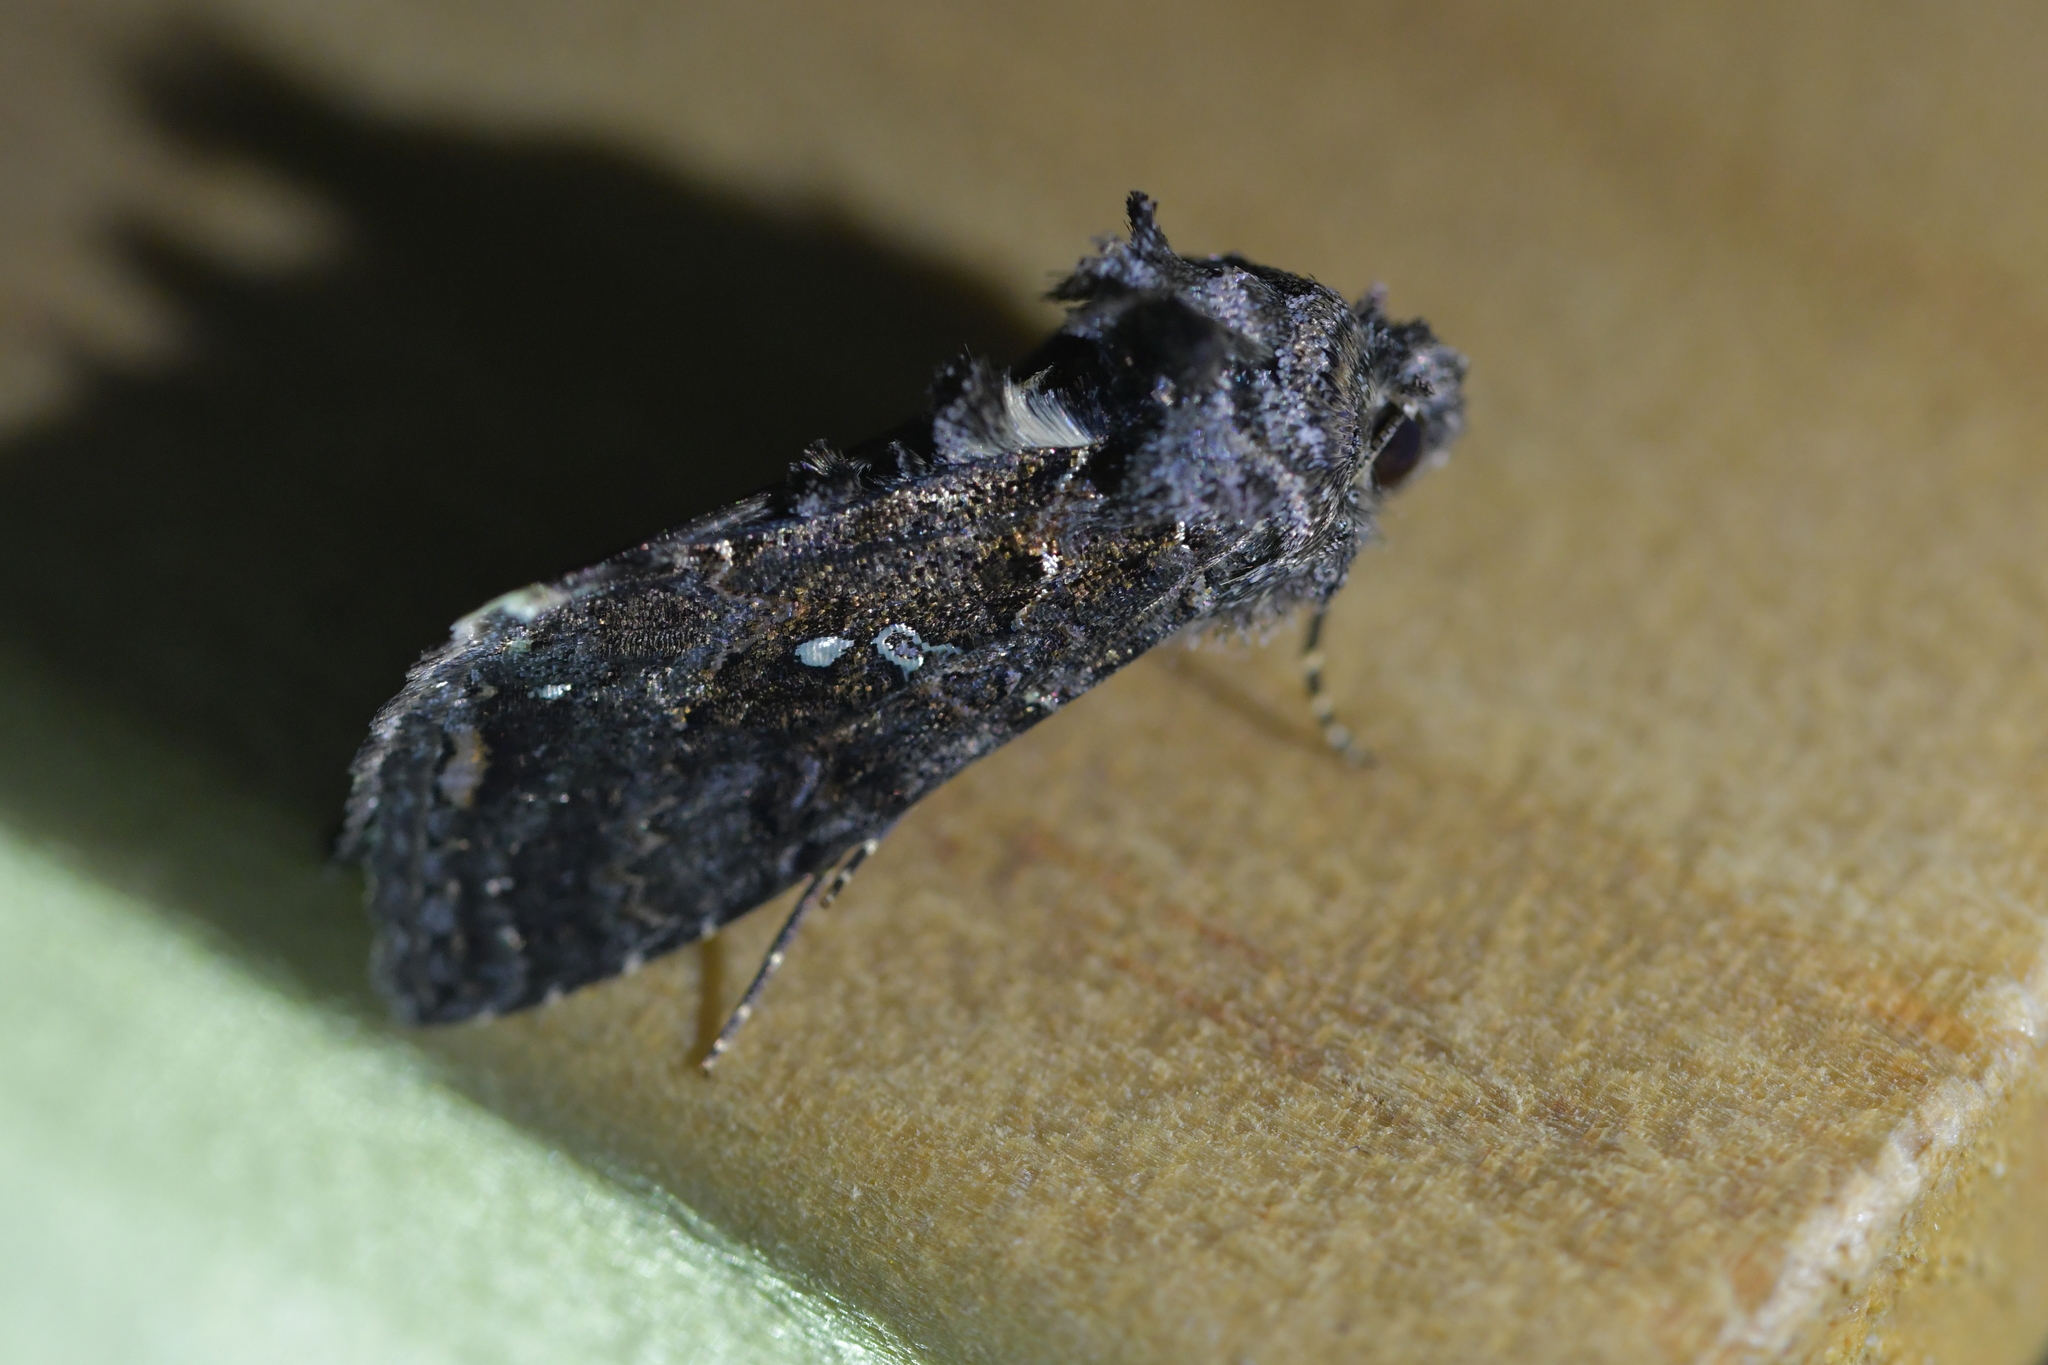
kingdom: Animalia
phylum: Arthropoda
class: Insecta
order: Lepidoptera
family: Noctuidae
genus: Ctenoplusia
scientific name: Ctenoplusia limbirena
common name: Scar bank gem
